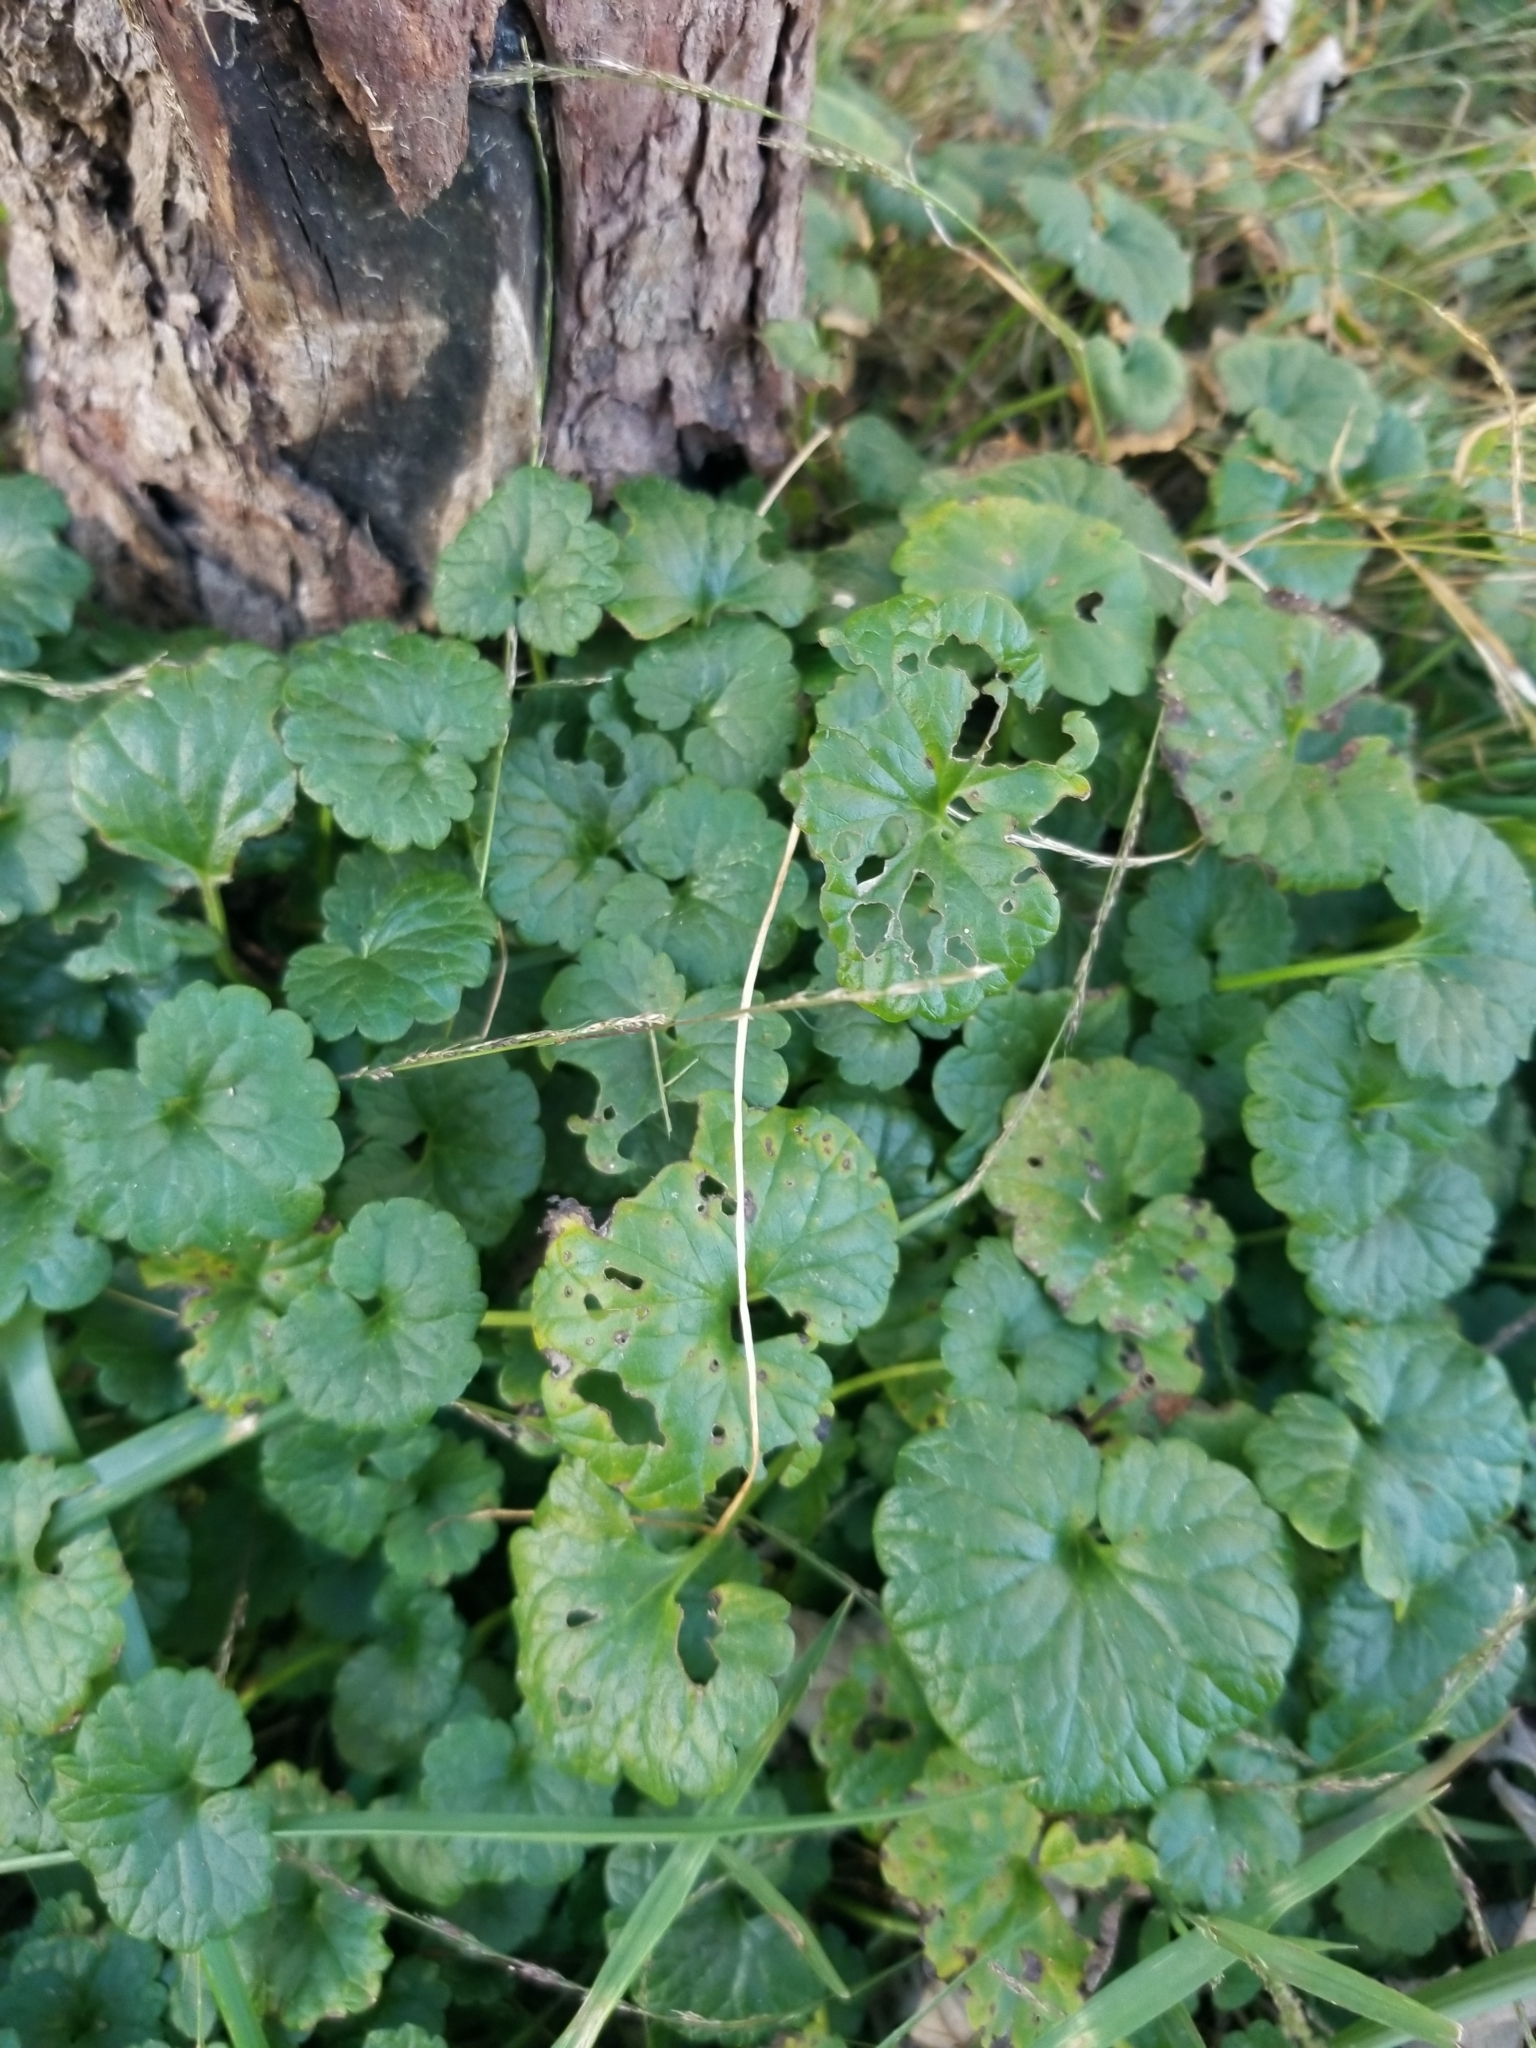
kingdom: Plantae
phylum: Tracheophyta
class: Magnoliopsida
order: Lamiales
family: Lamiaceae
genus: Glechoma
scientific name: Glechoma hederacea
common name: Ground ivy
